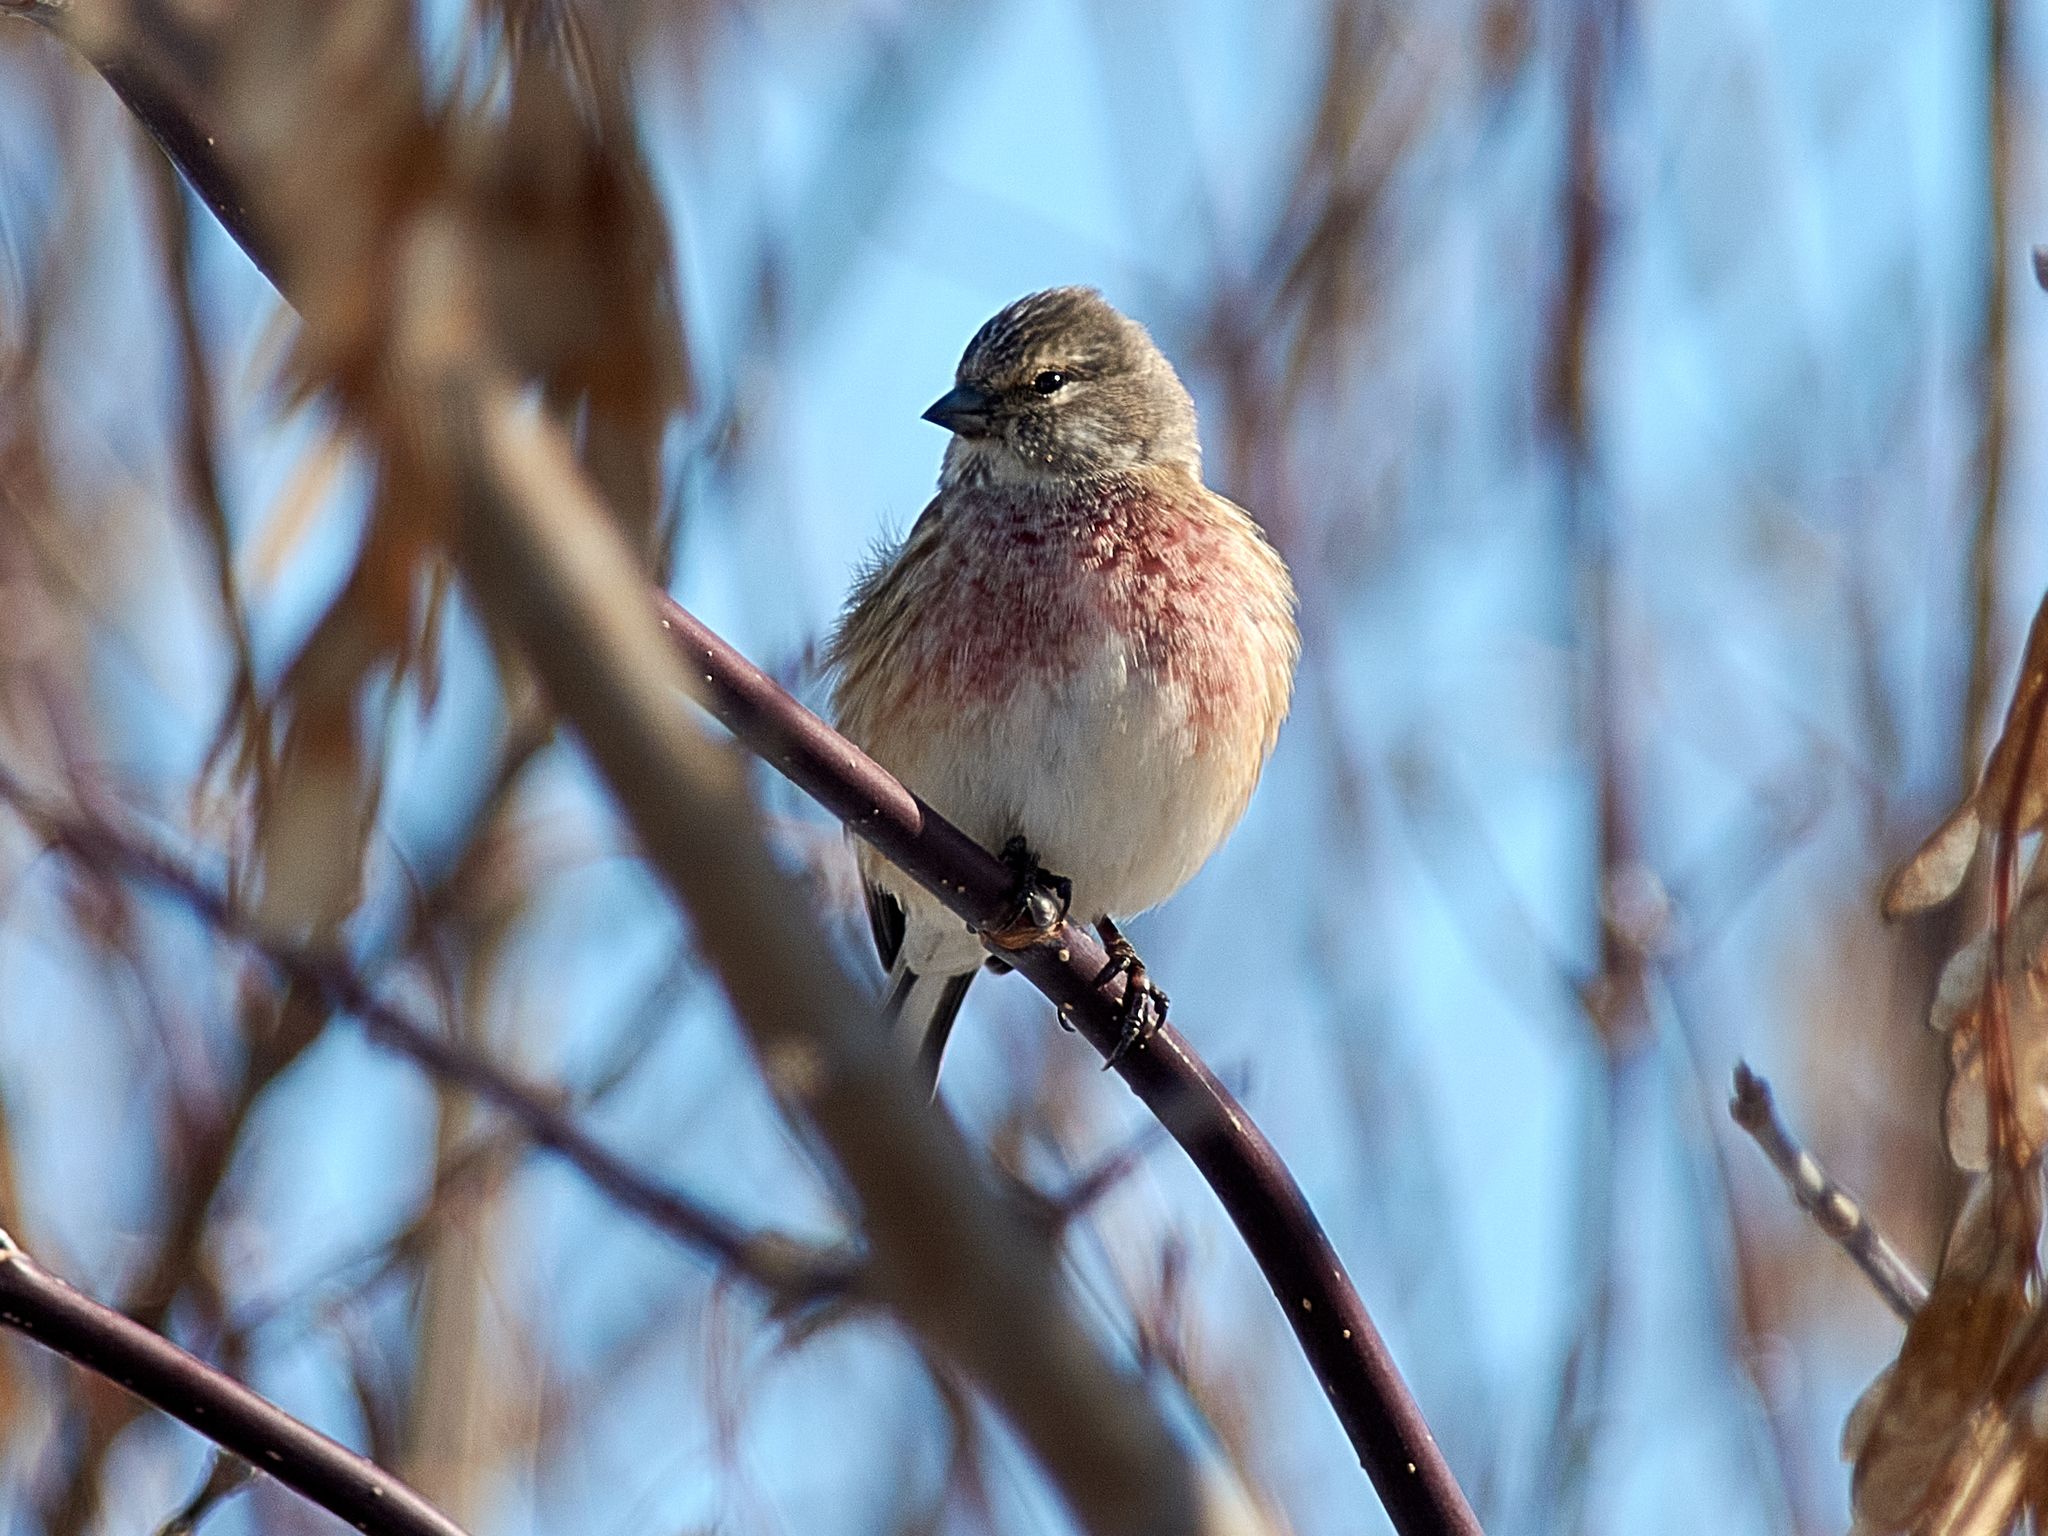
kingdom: Animalia
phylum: Chordata
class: Aves
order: Passeriformes
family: Fringillidae
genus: Linaria
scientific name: Linaria cannabina
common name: Common linnet
